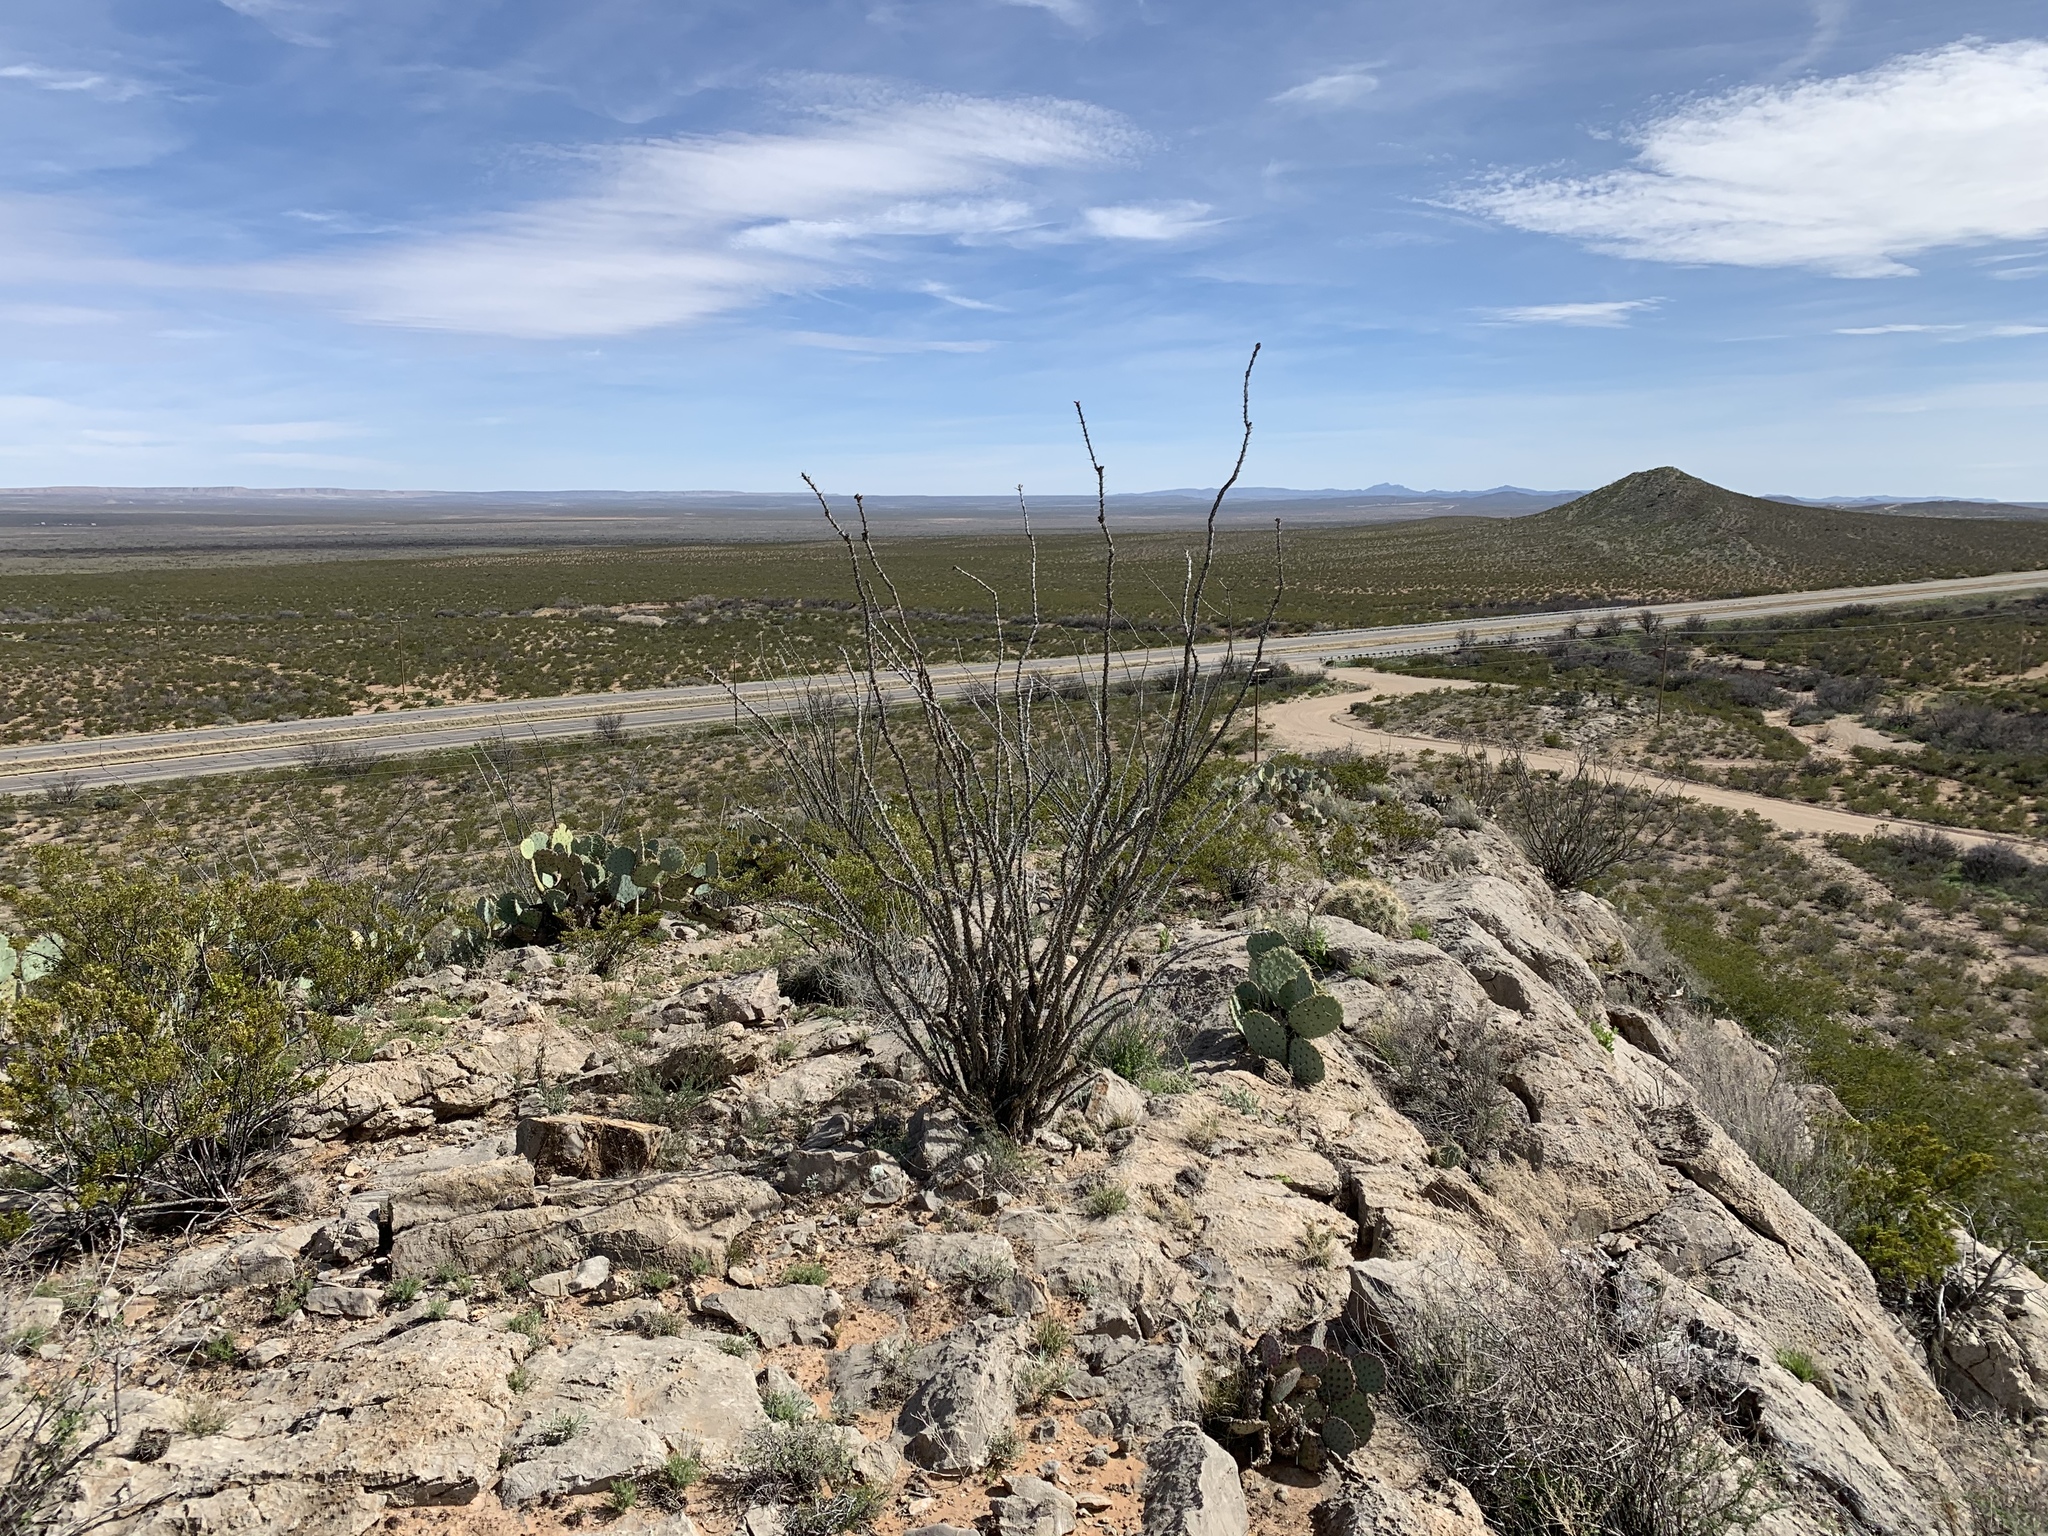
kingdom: Plantae
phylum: Tracheophyta
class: Magnoliopsida
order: Ericales
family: Fouquieriaceae
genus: Fouquieria
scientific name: Fouquieria splendens
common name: Vine-cactus
